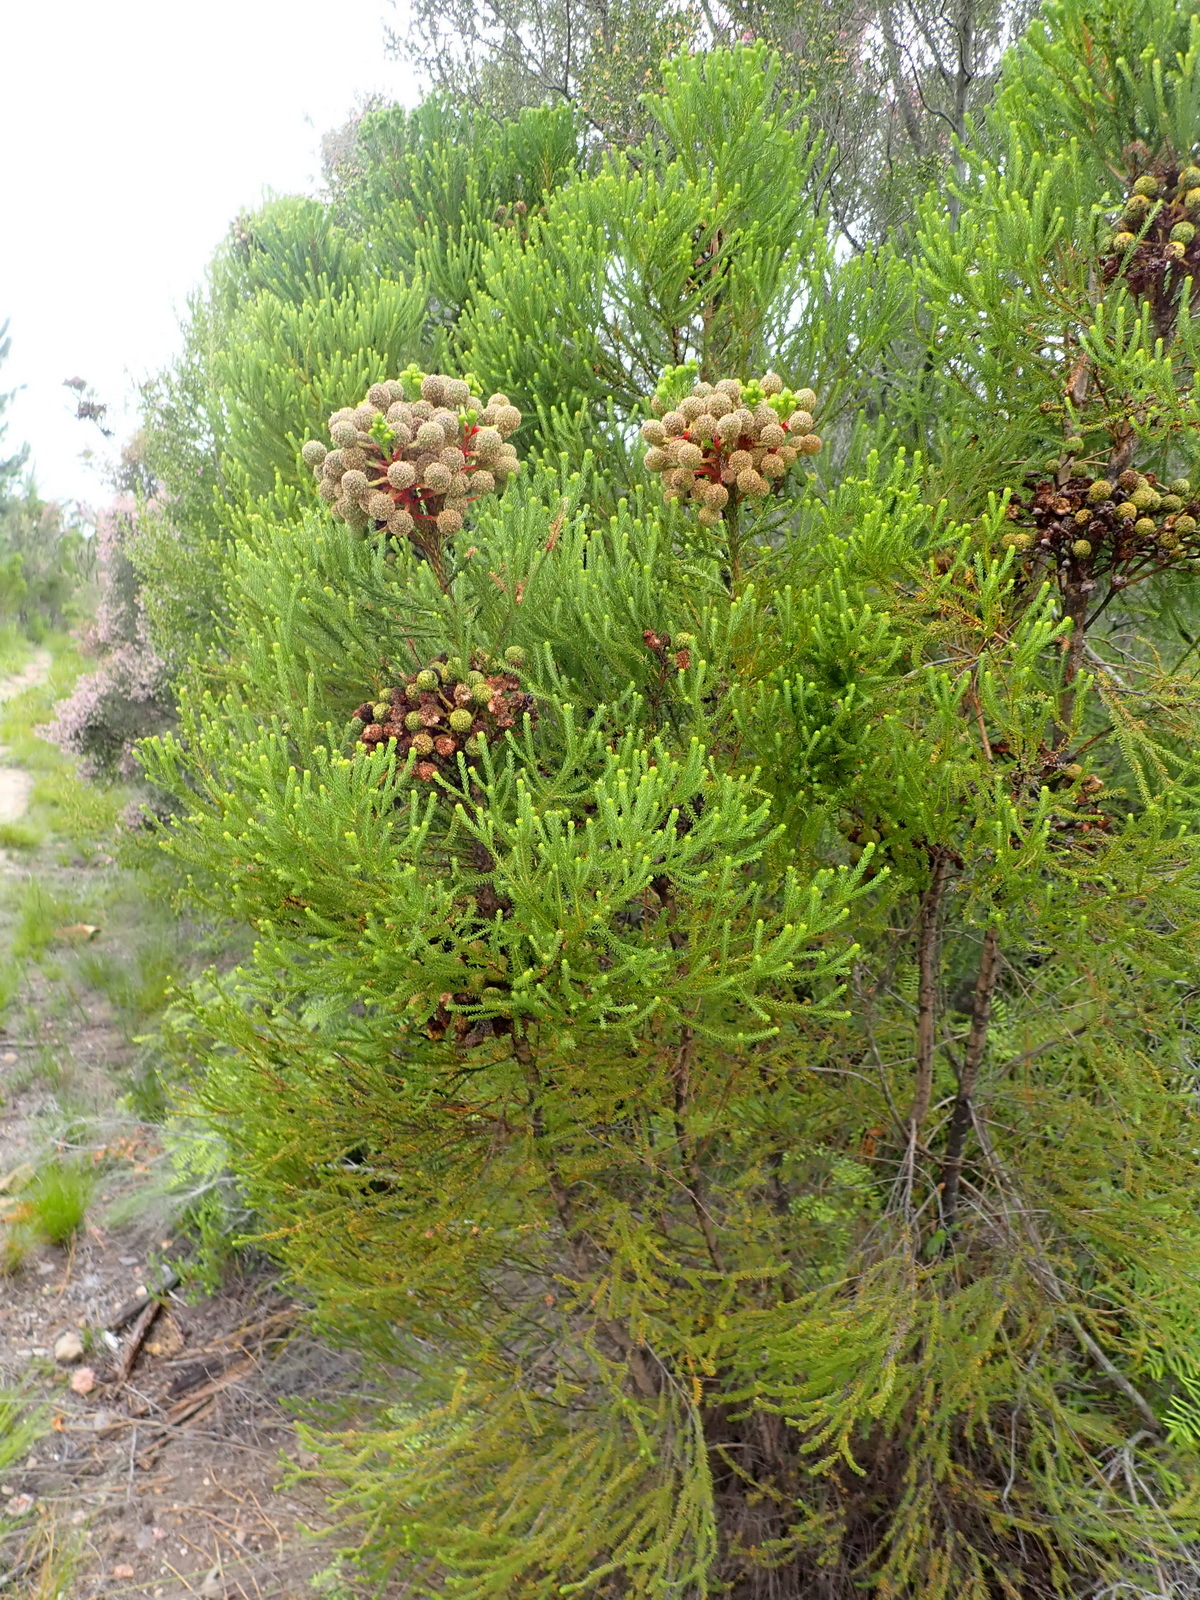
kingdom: Plantae
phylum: Tracheophyta
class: Magnoliopsida
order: Bruniales
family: Bruniaceae
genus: Berzelia
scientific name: Berzelia intermedia
